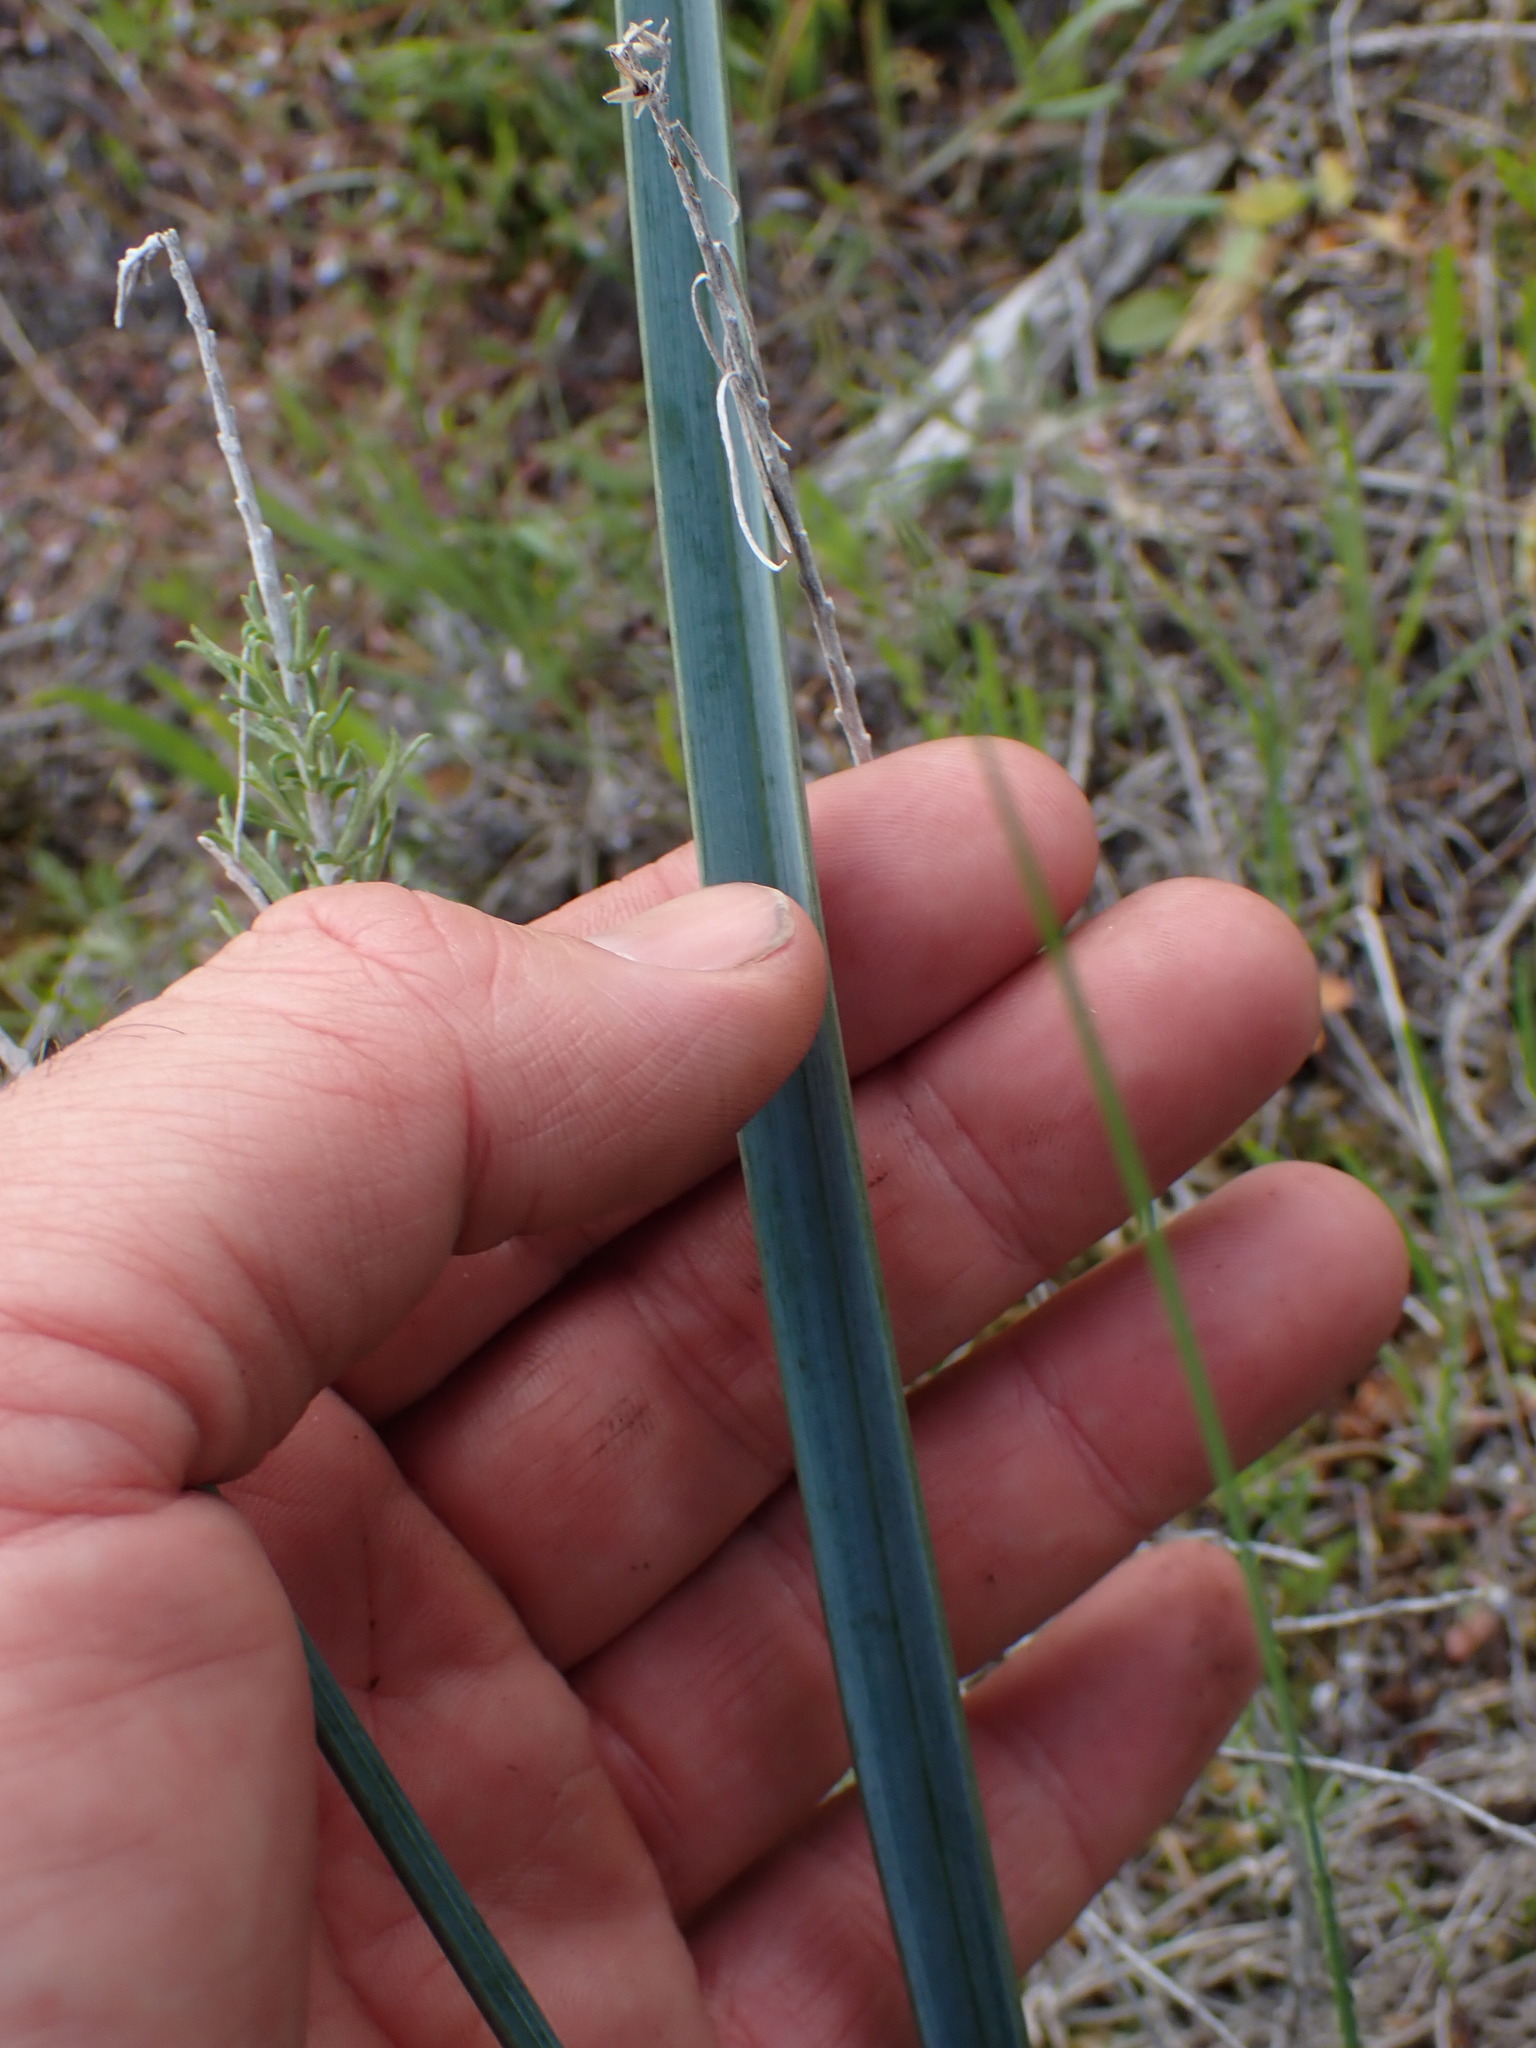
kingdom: Plantae
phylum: Tracheophyta
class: Liliopsida
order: Liliales
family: Liliaceae
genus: Calochortus
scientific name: Calochortus macrocarpus
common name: Green-band mariposa lily
